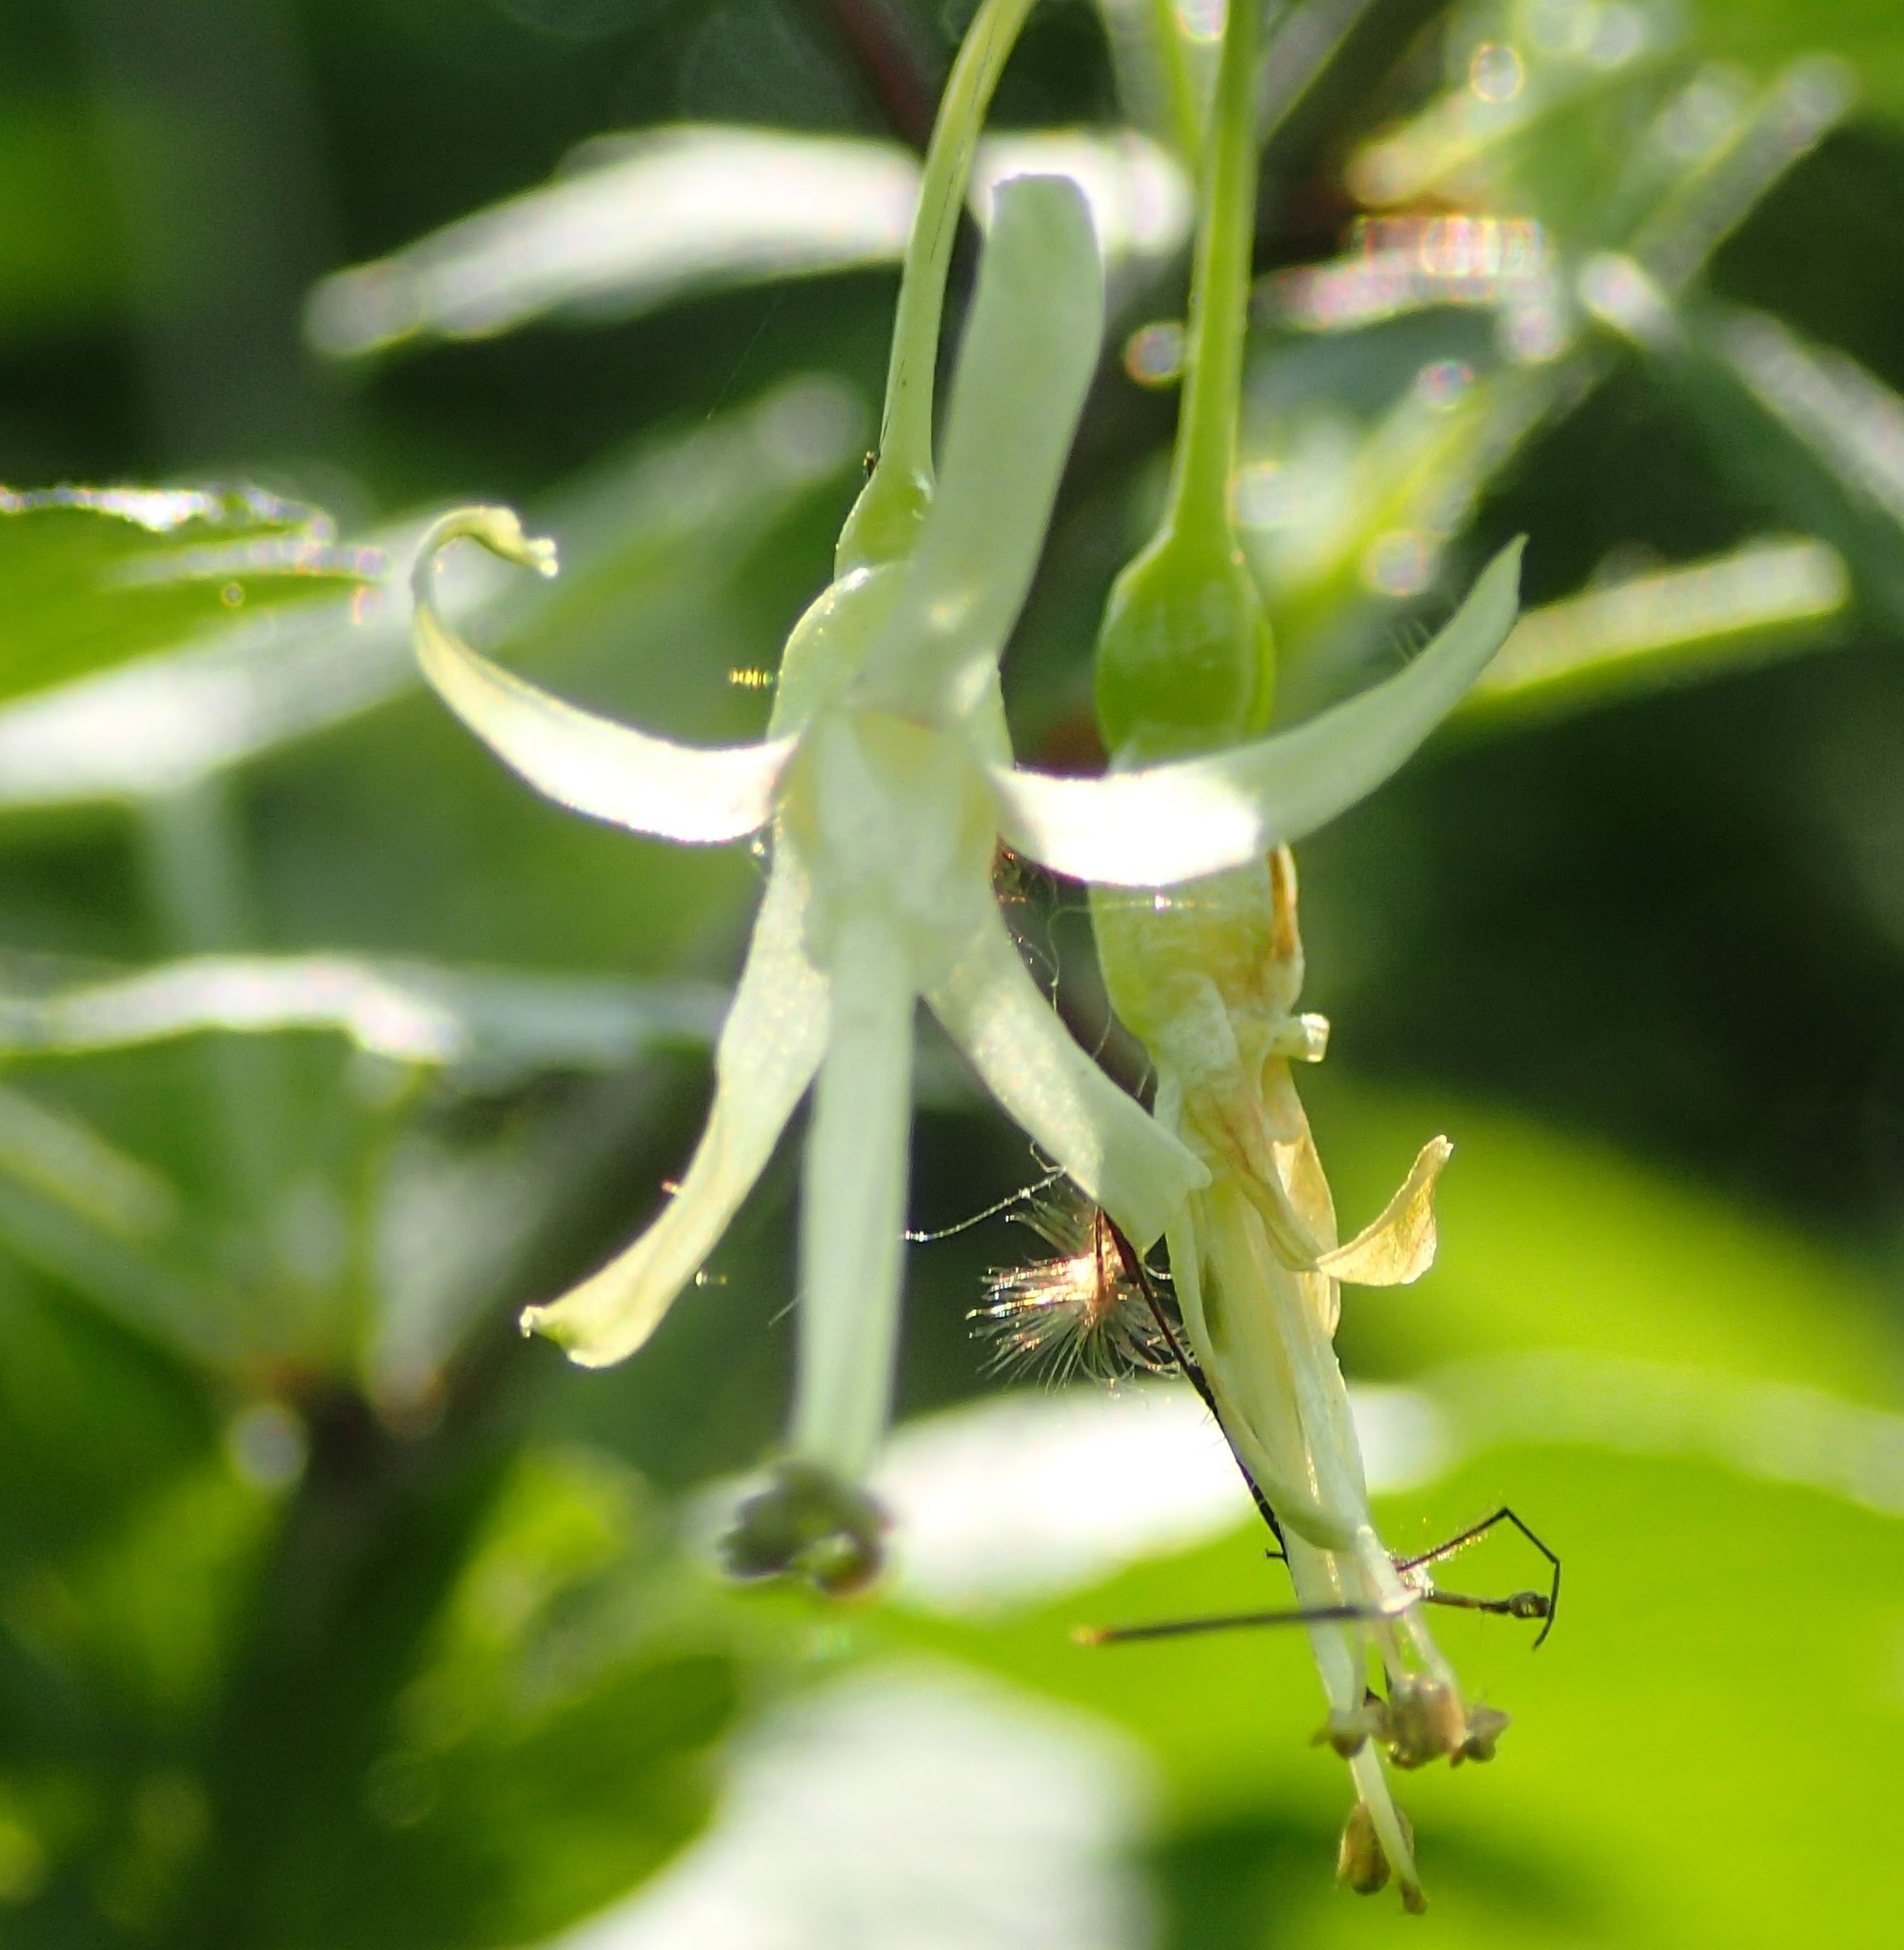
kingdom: Plantae
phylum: Tracheophyta
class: Magnoliopsida
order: Saxifragales
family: Grossulariaceae
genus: Ribes
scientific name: Ribes missouriense
